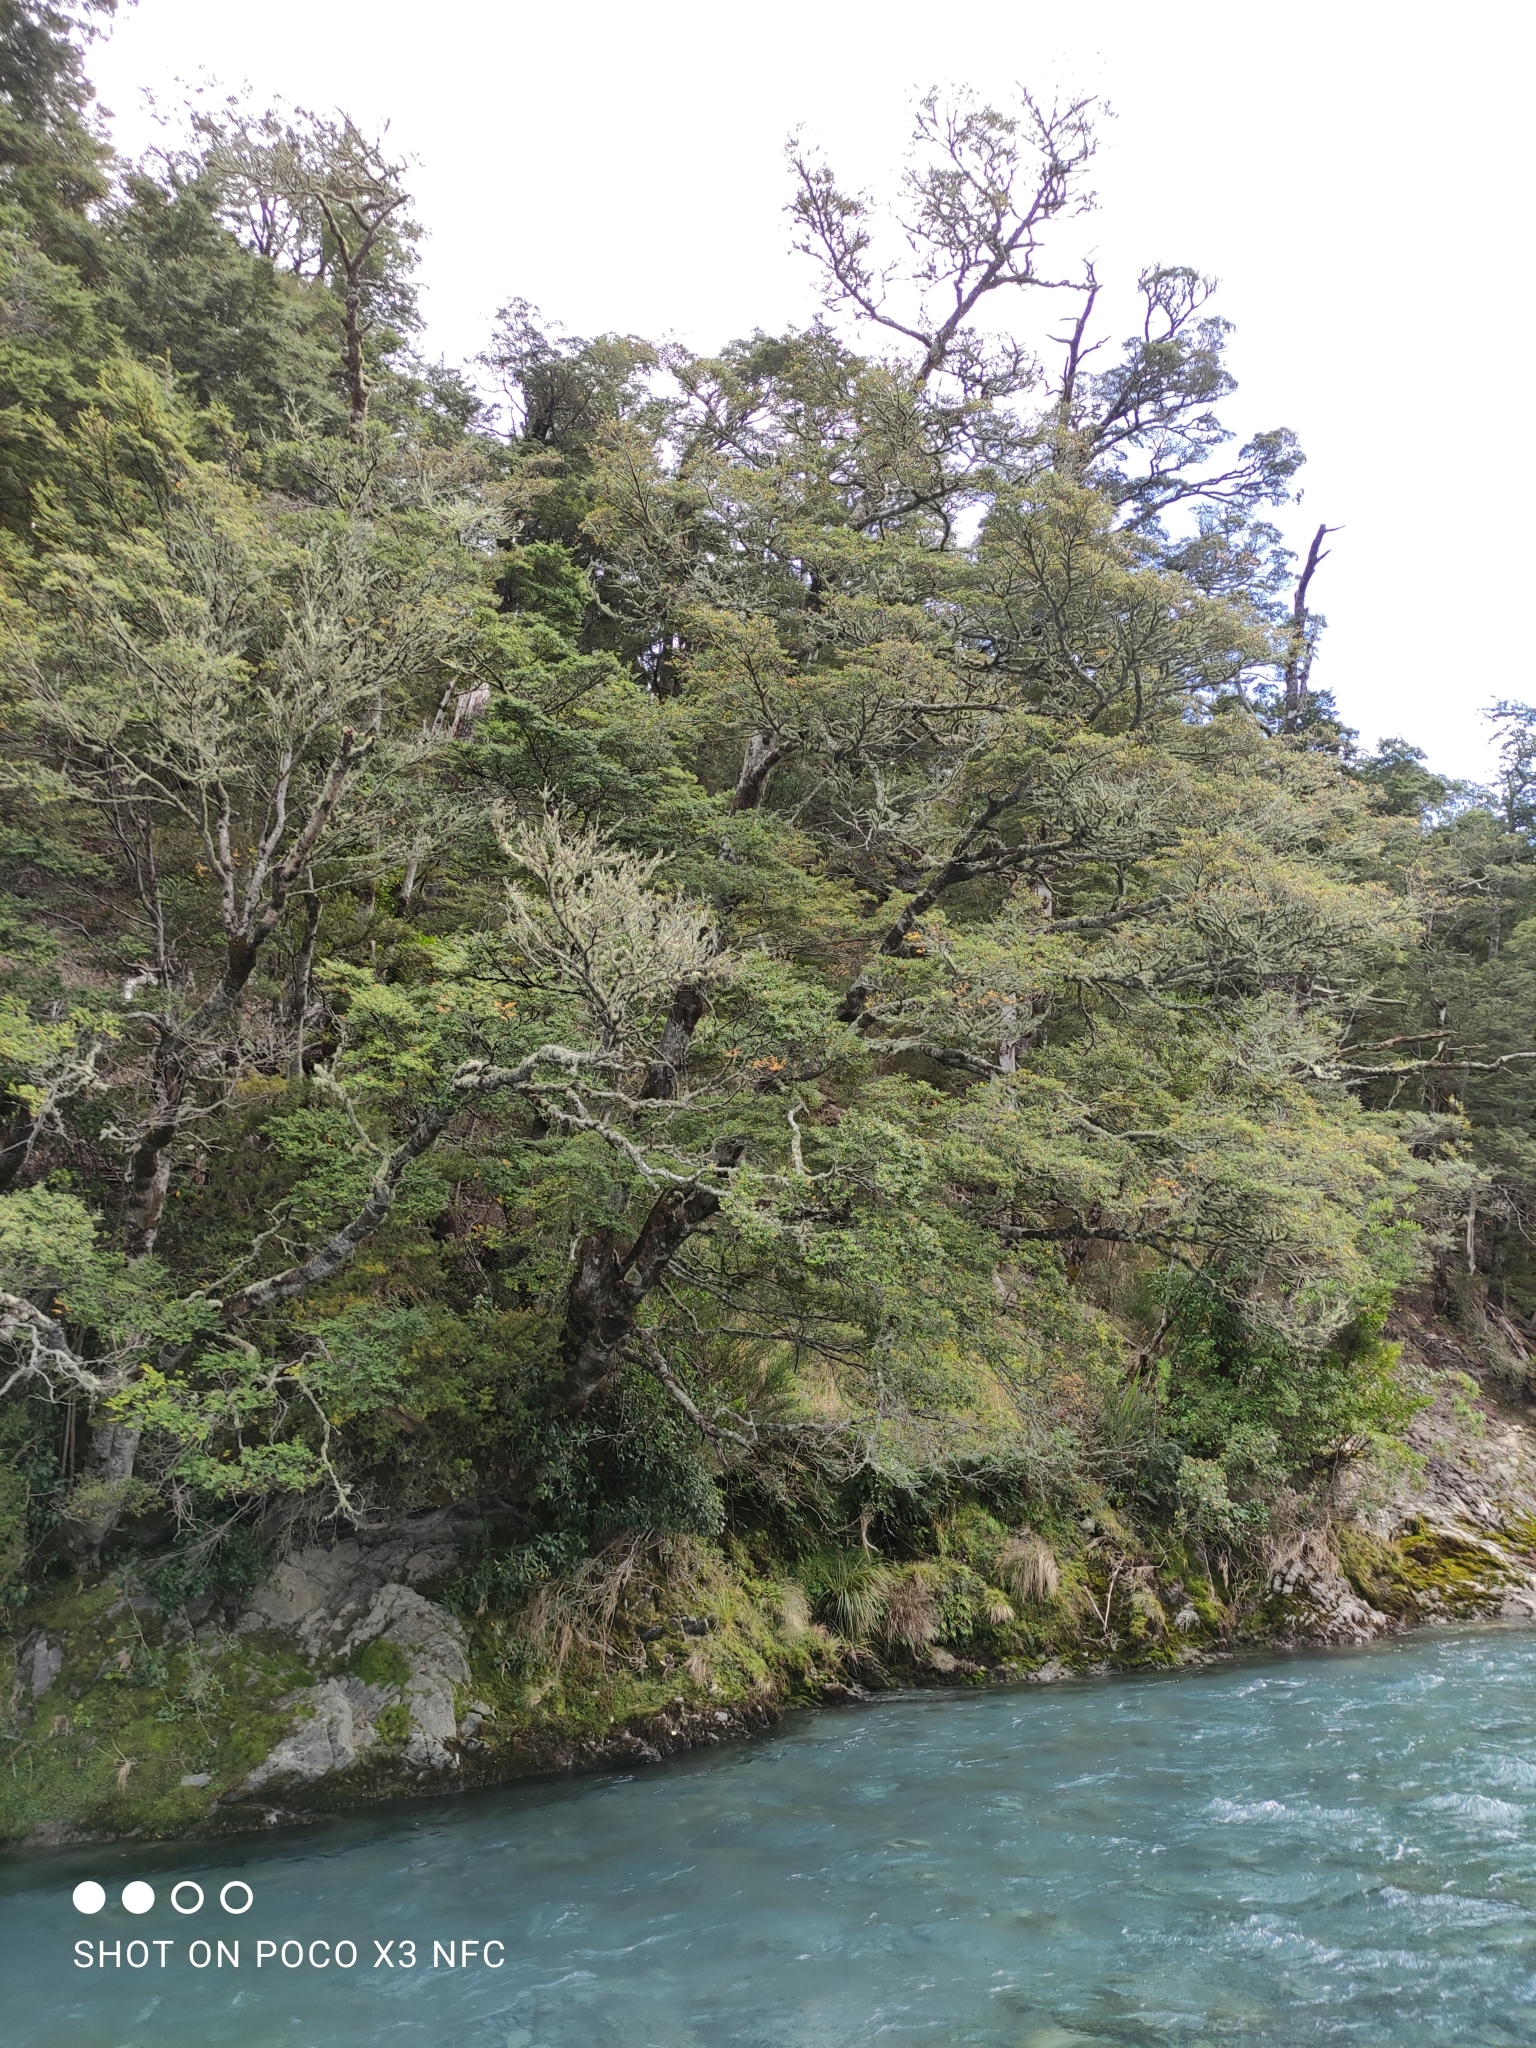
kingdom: Plantae
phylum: Tracheophyta
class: Magnoliopsida
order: Fagales
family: Nothofagaceae
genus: Nothofagus
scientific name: Nothofagus cliffortioides
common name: Mountain beech
